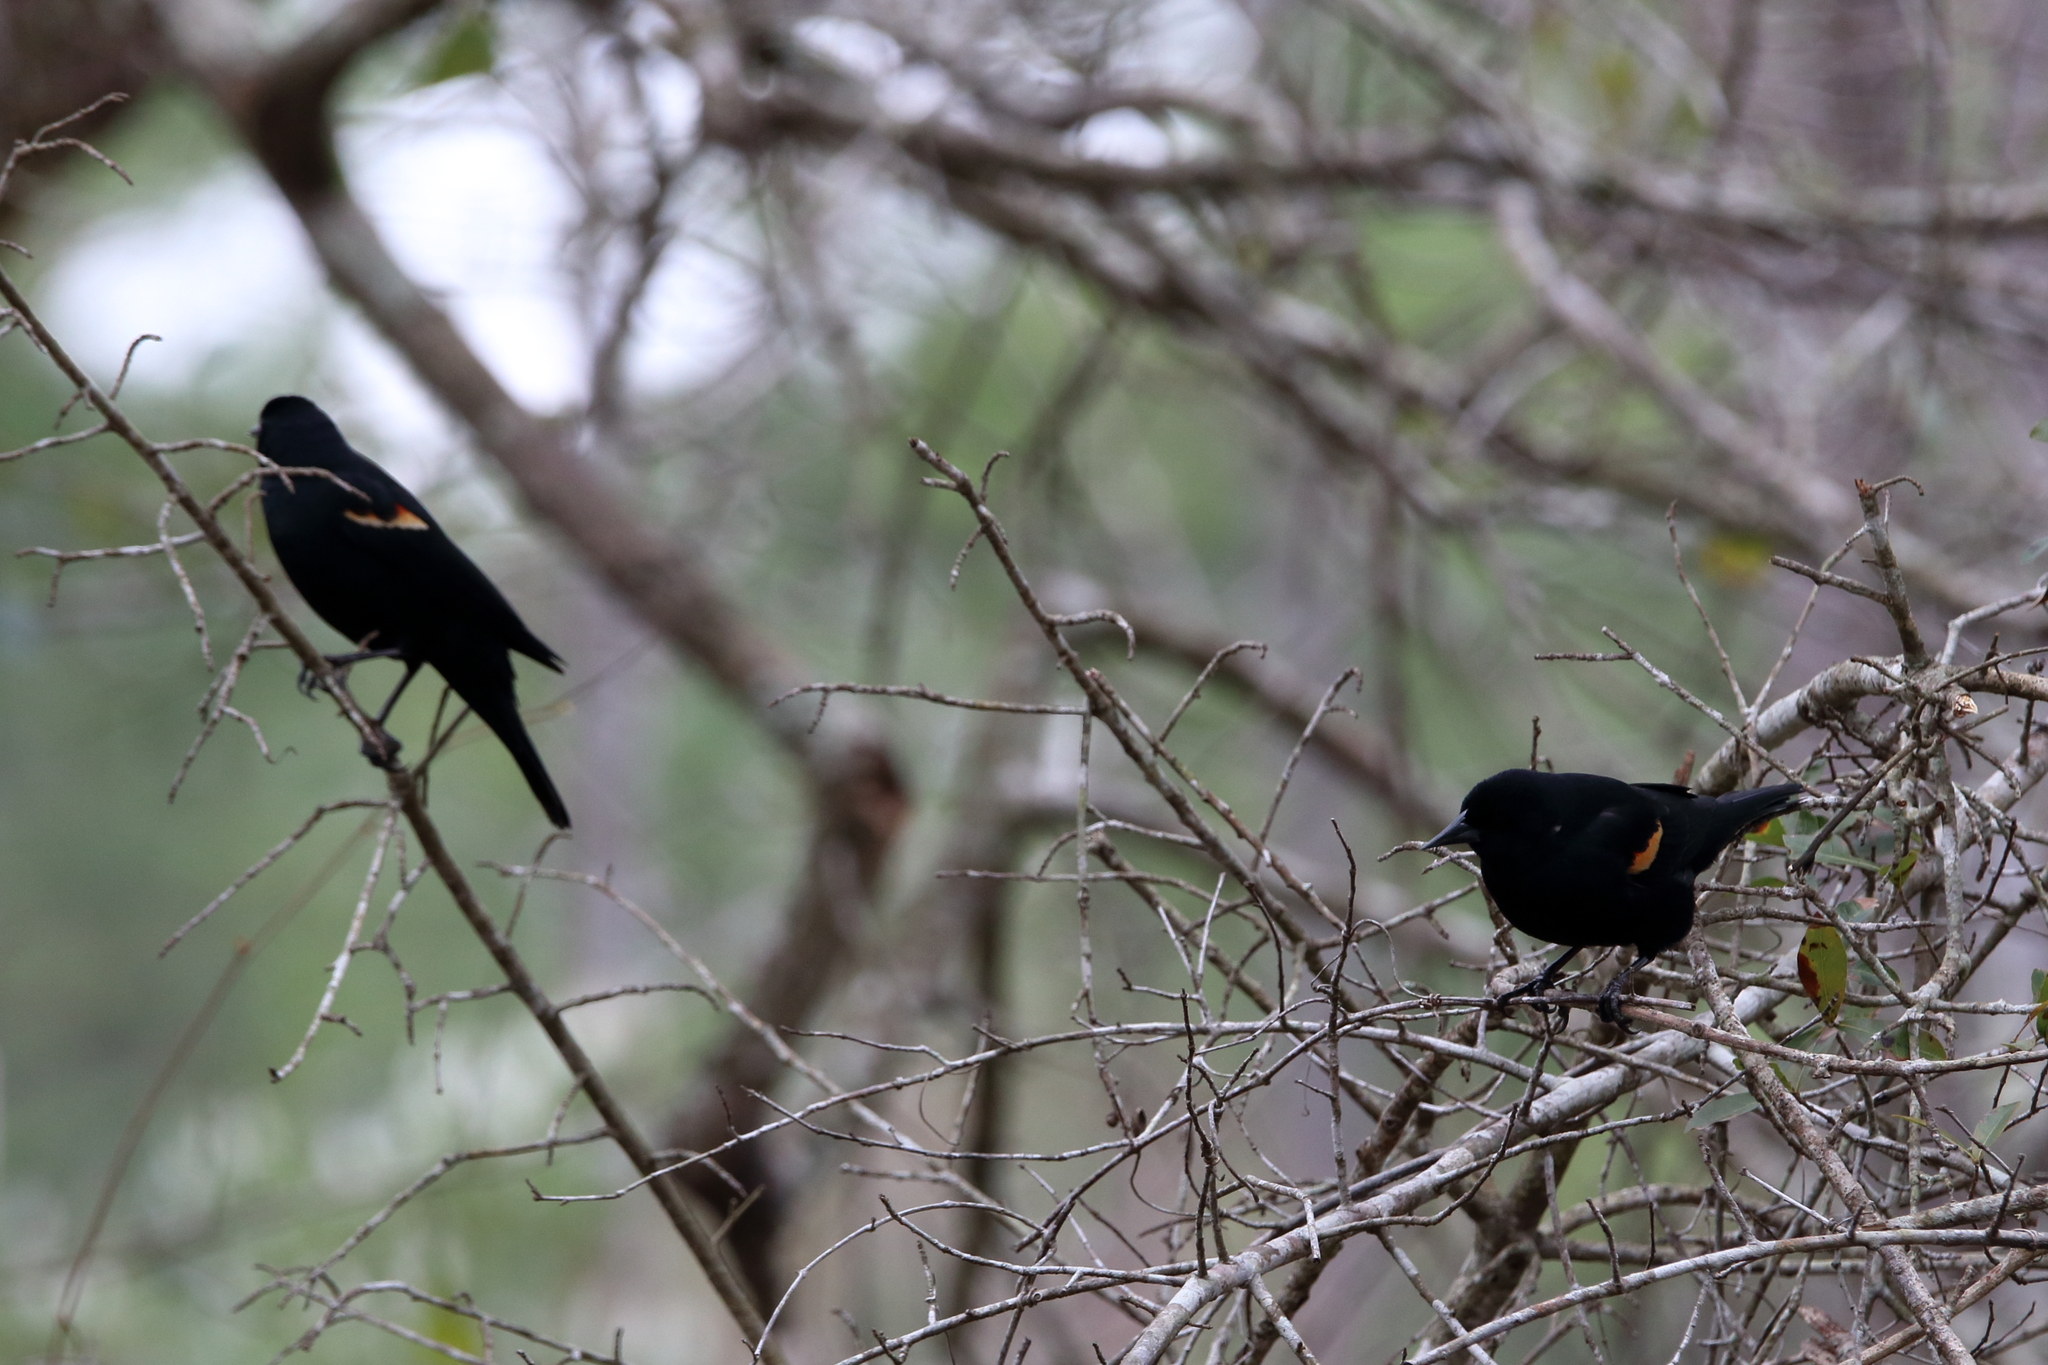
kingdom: Animalia
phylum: Chordata
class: Aves
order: Passeriformes
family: Icteridae
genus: Agelaius
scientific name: Agelaius phoeniceus
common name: Red-winged blackbird
